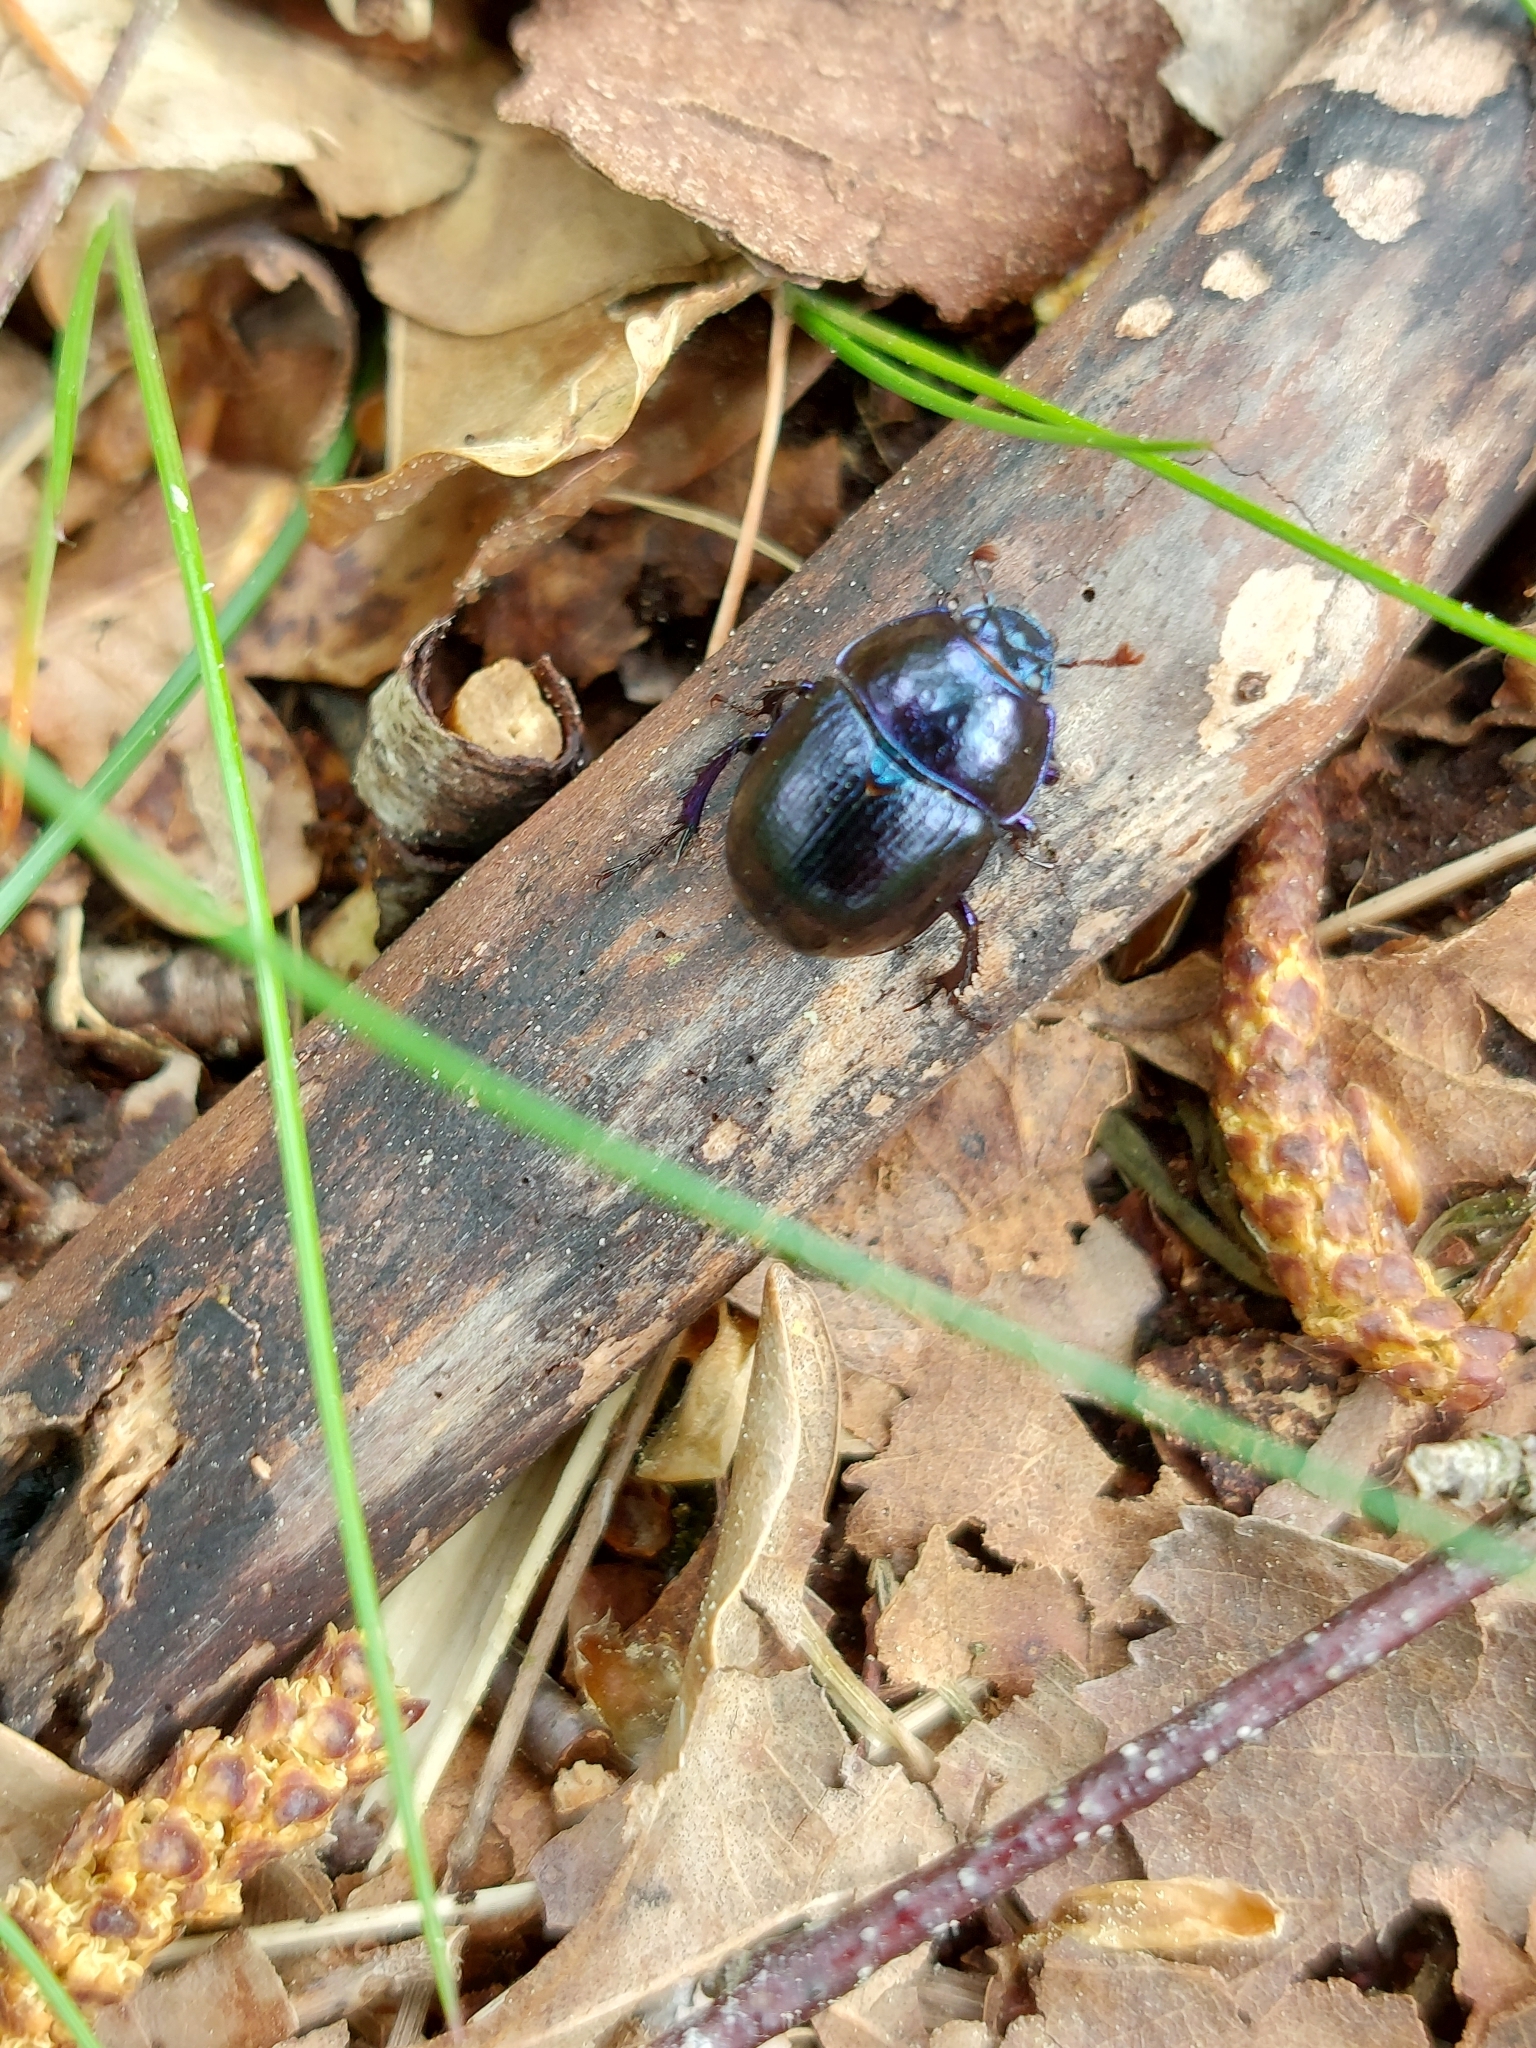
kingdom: Animalia
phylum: Arthropoda
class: Insecta
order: Coleoptera
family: Geotrupidae
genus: Anoplotrupes
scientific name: Anoplotrupes stercorosus
